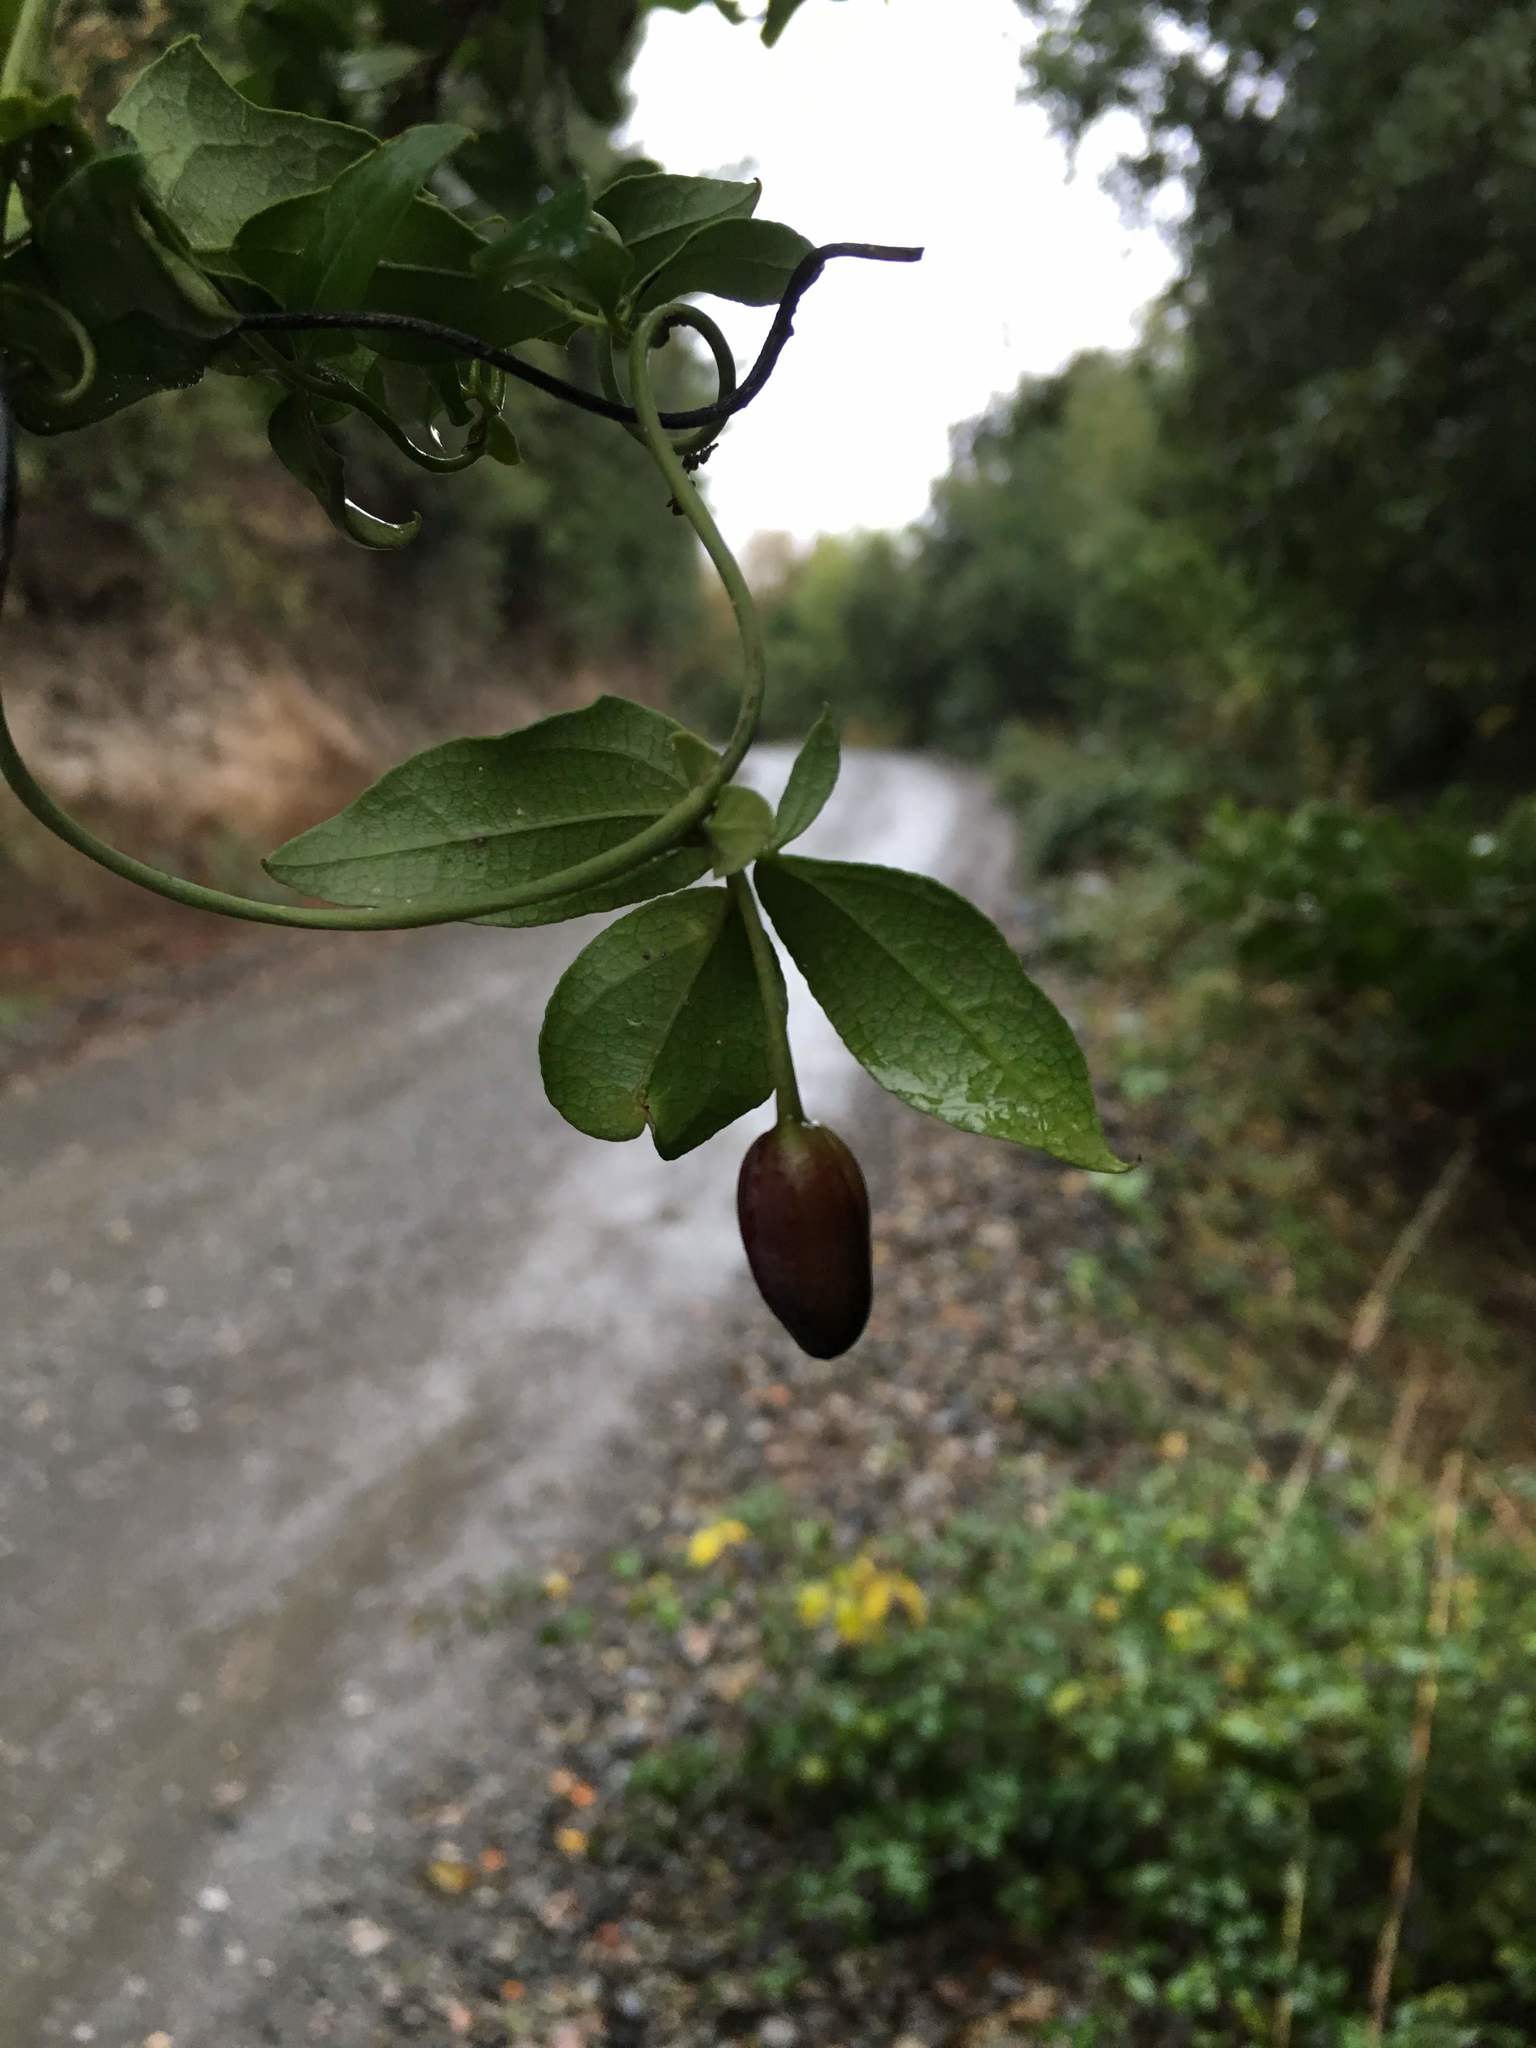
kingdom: Plantae
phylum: Tracheophyta
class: Magnoliopsida
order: Ranunculales
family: Lardizabalaceae
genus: Lardizabala
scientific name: Lardizabala funaria
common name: Zabala
